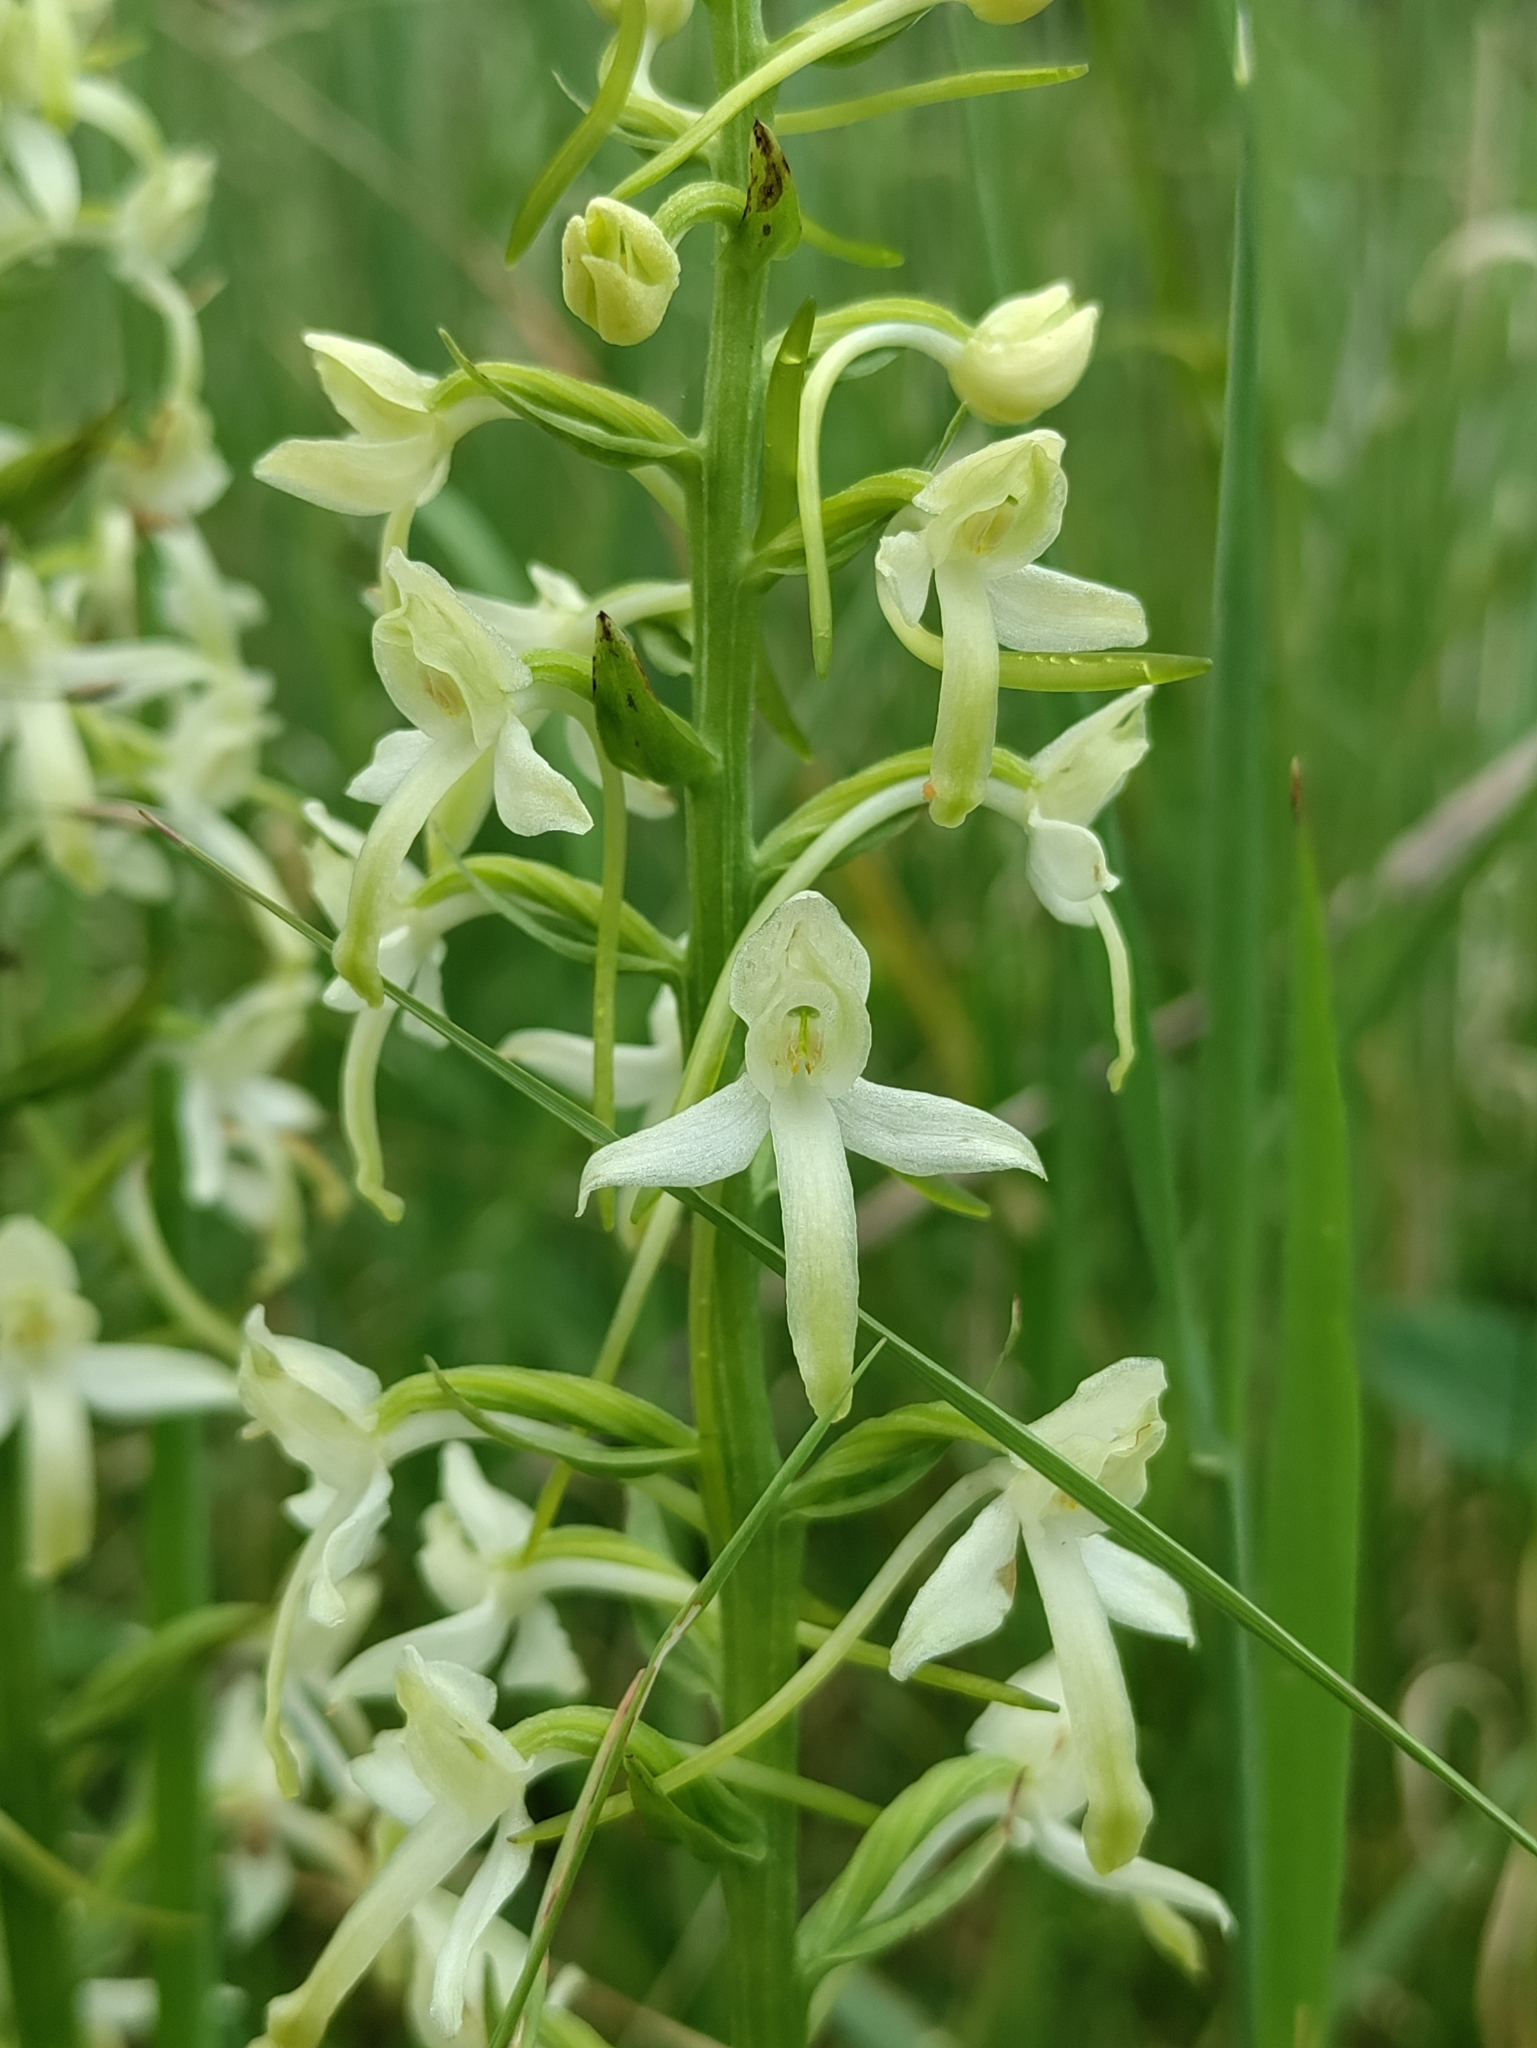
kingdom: Plantae
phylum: Tracheophyta
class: Liliopsida
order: Asparagales
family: Orchidaceae
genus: Platanthera
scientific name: Platanthera bifolia
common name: Lesser butterfly-orchid
